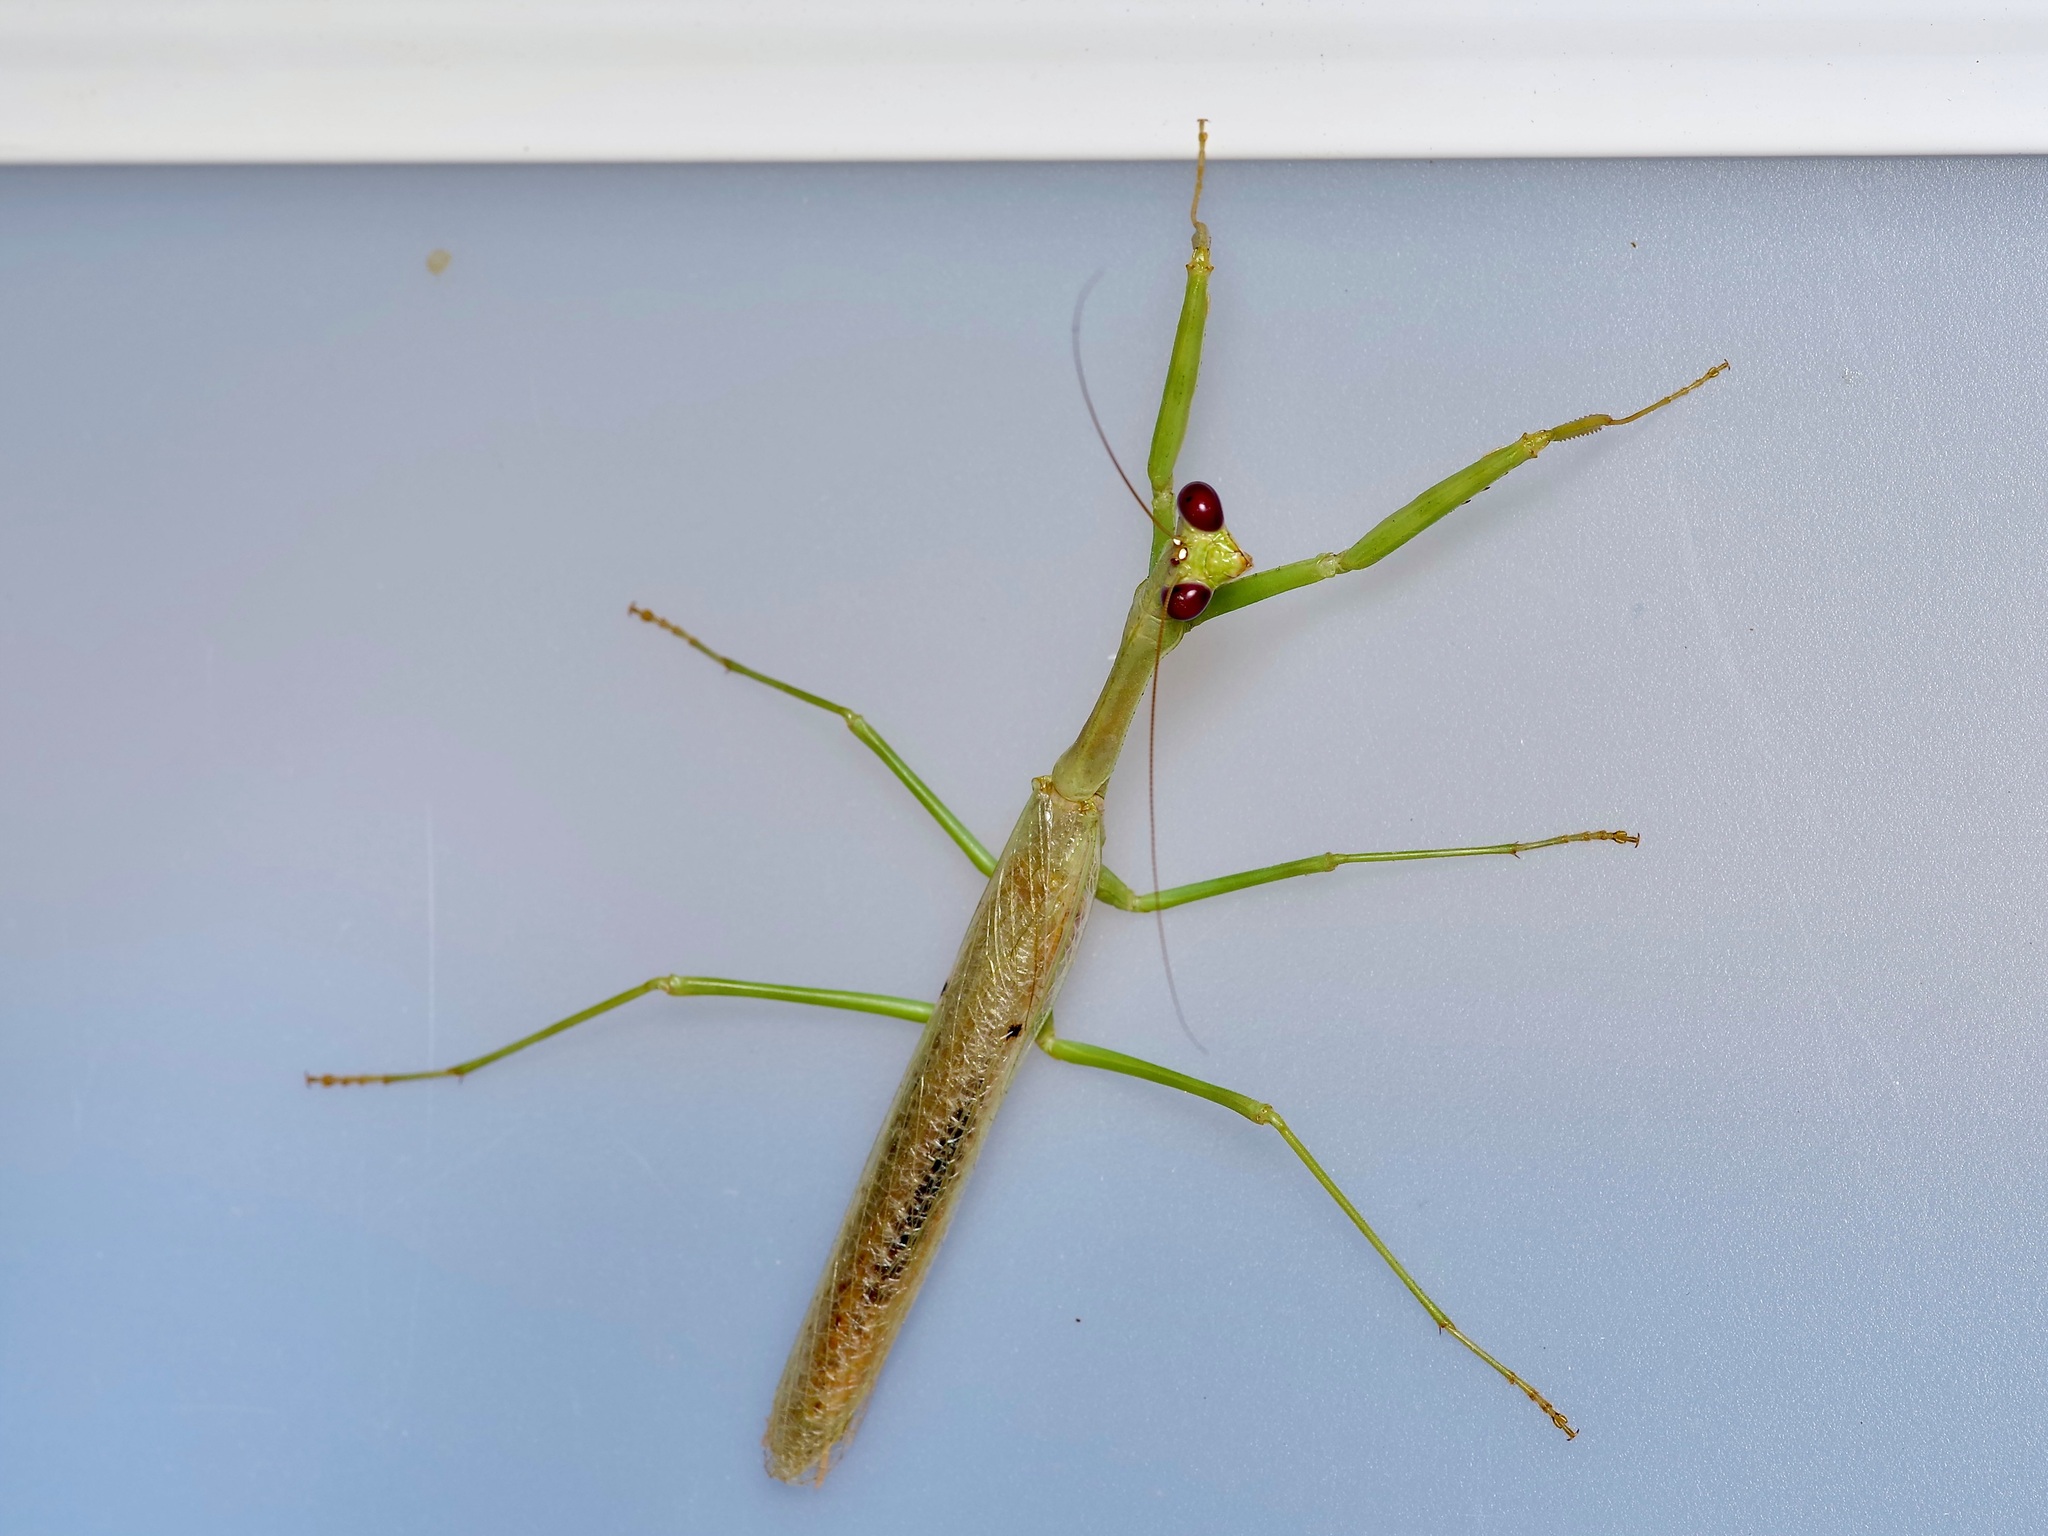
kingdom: Animalia
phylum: Arthropoda
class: Insecta
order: Mantodea
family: Mantidae
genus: Stagmomantis
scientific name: Stagmomantis carolina
